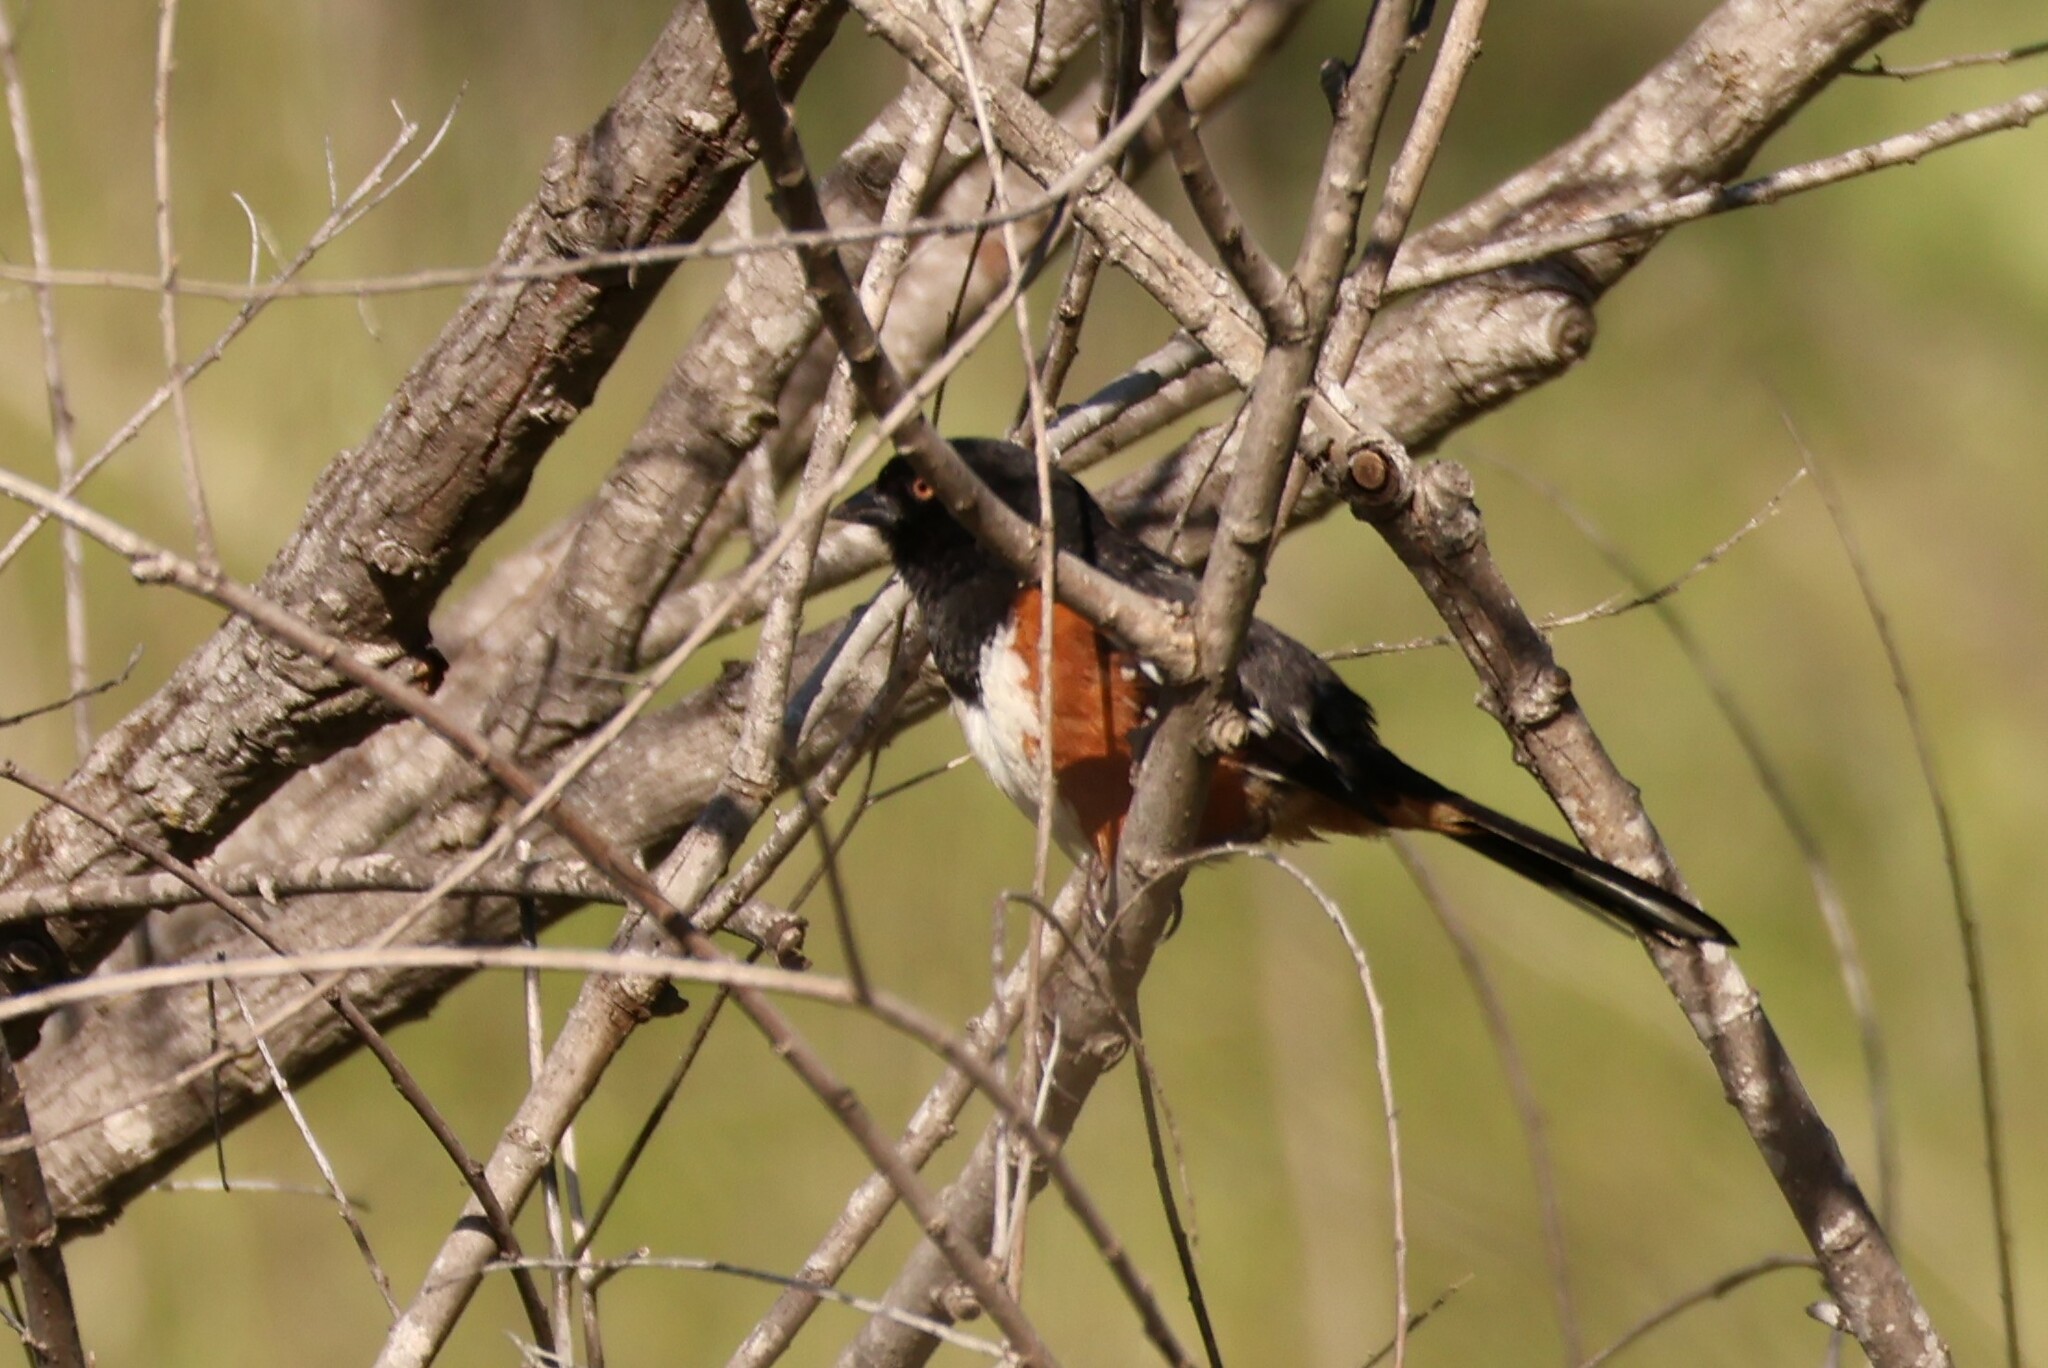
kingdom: Animalia
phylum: Chordata
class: Aves
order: Passeriformes
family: Passerellidae
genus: Pipilo
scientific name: Pipilo maculatus
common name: Spotted towhee
